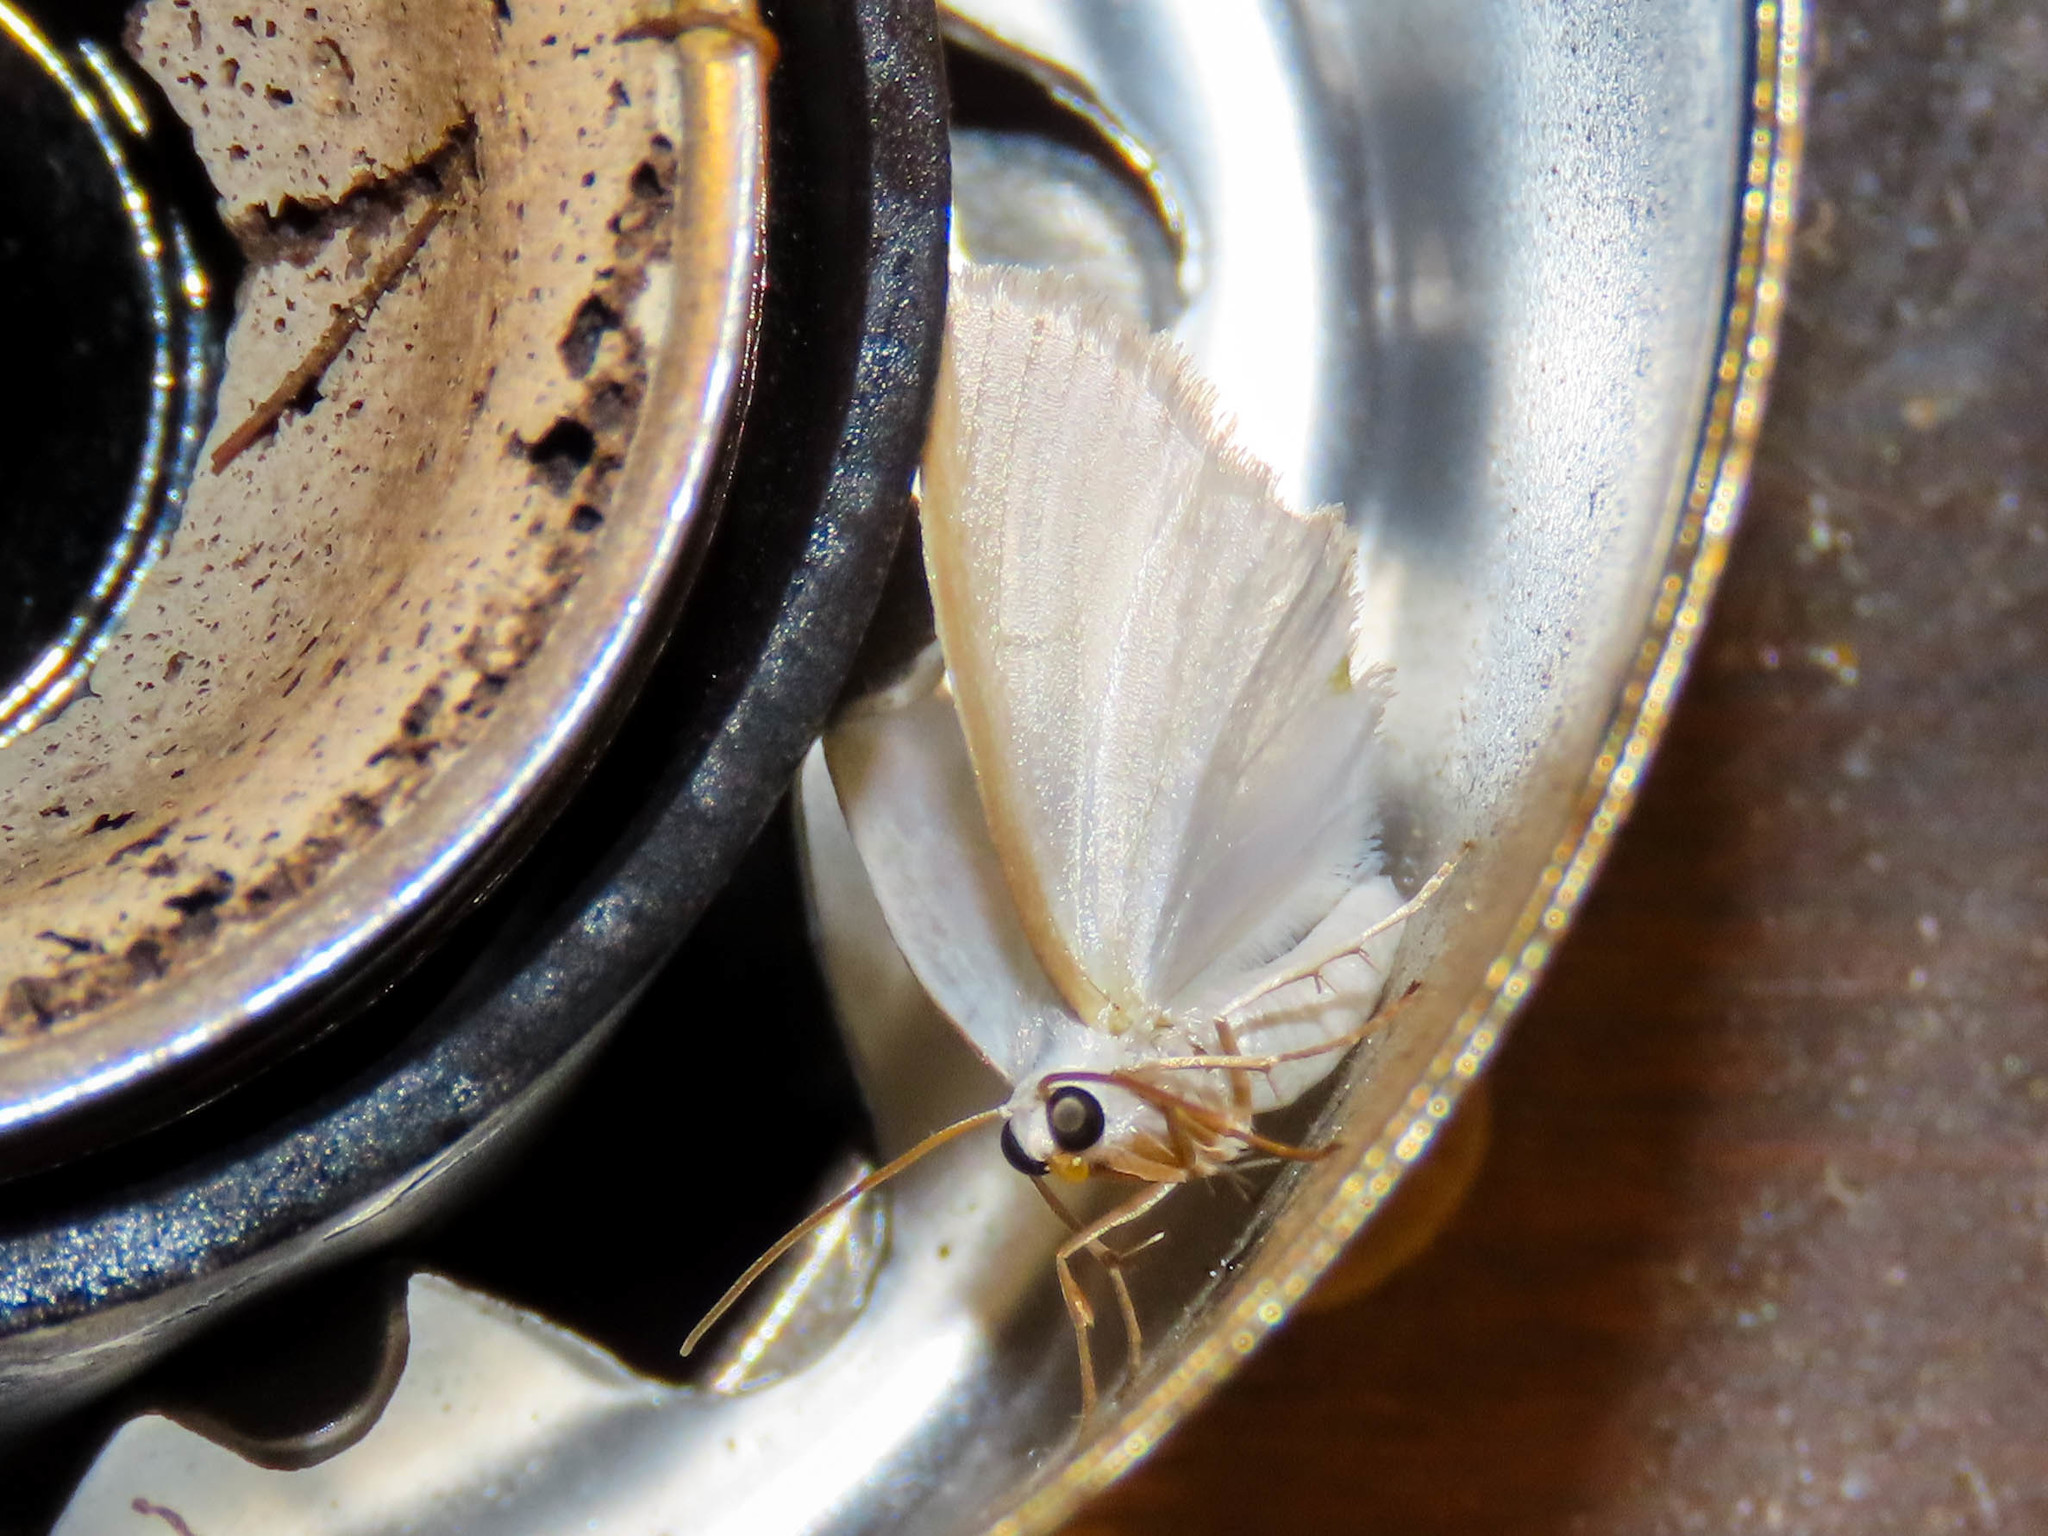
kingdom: Animalia
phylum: Arthropoda
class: Insecta
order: Lepidoptera
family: Geometridae
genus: Lomographa
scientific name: Lomographa vestaliata
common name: White spring moth
